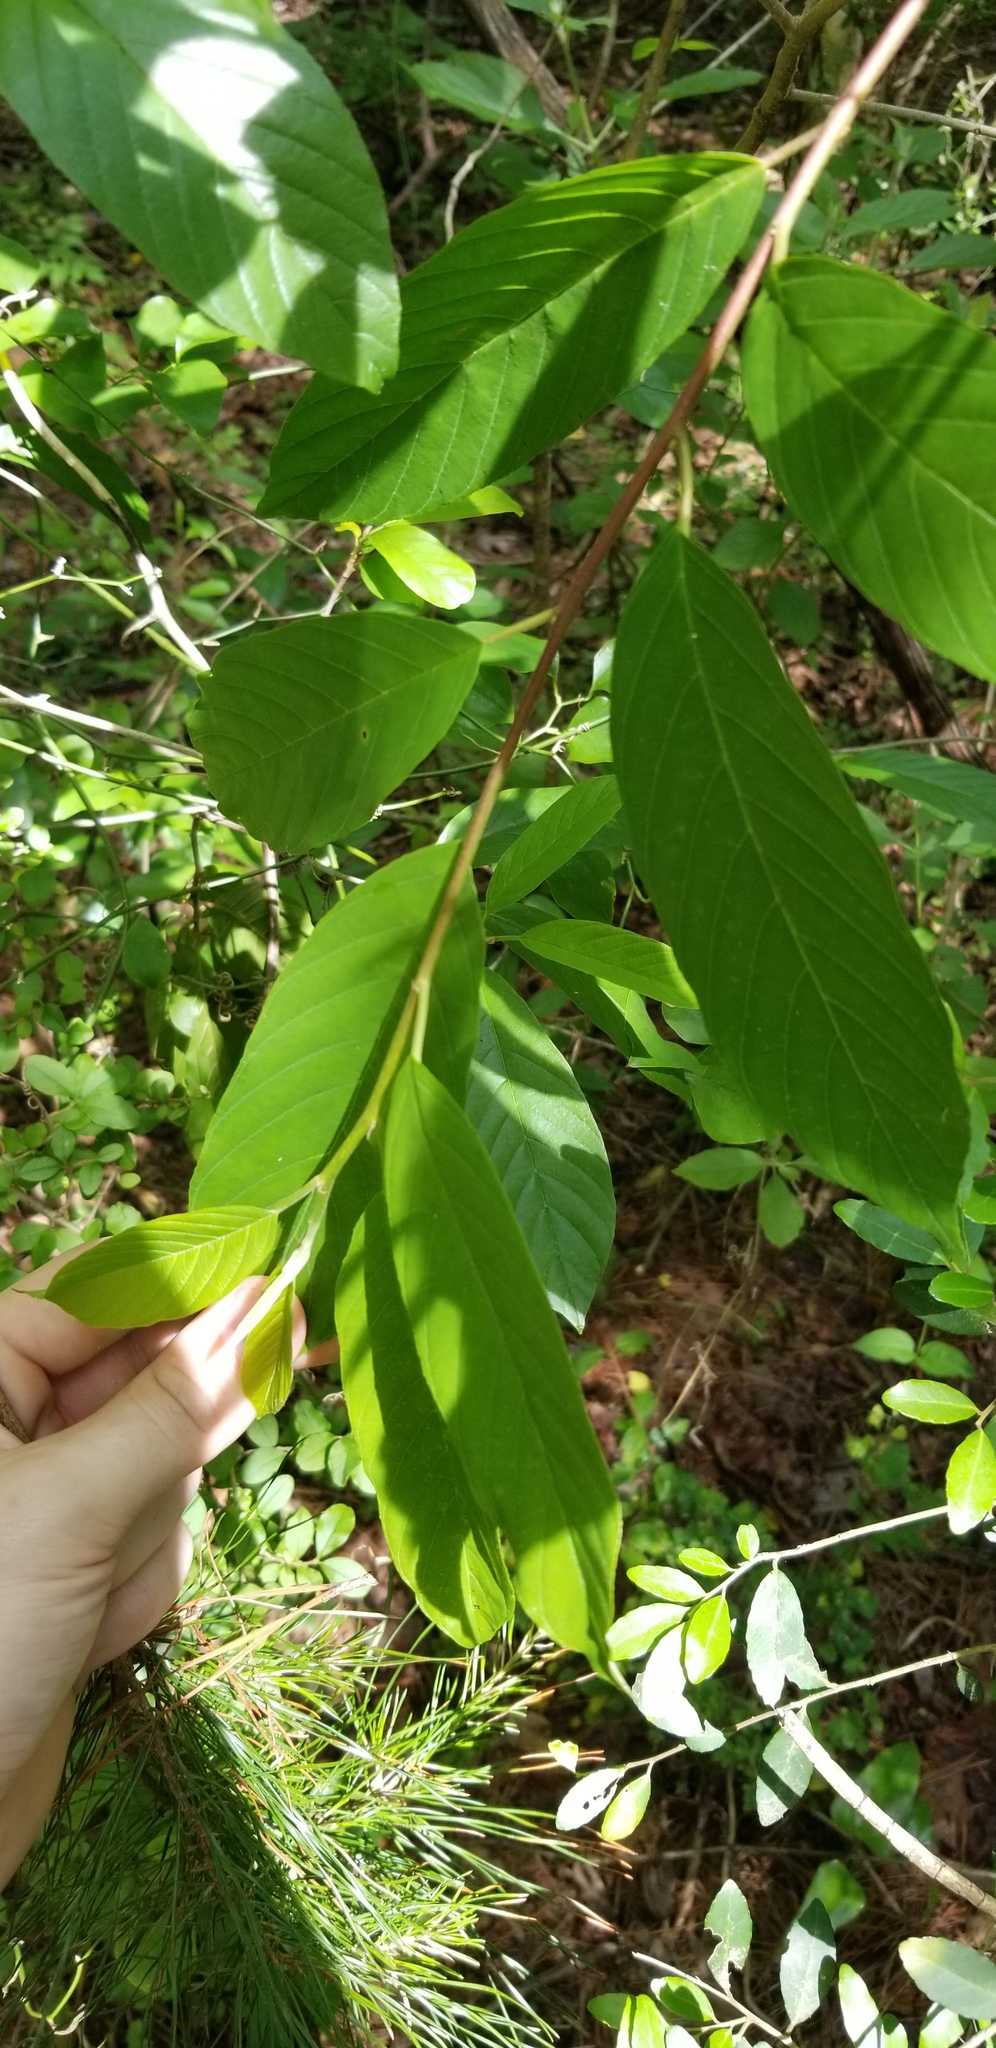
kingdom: Plantae
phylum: Tracheophyta
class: Magnoliopsida
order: Rosales
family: Rhamnaceae
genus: Frangula
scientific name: Frangula caroliniana
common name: Carolina buckthorn
